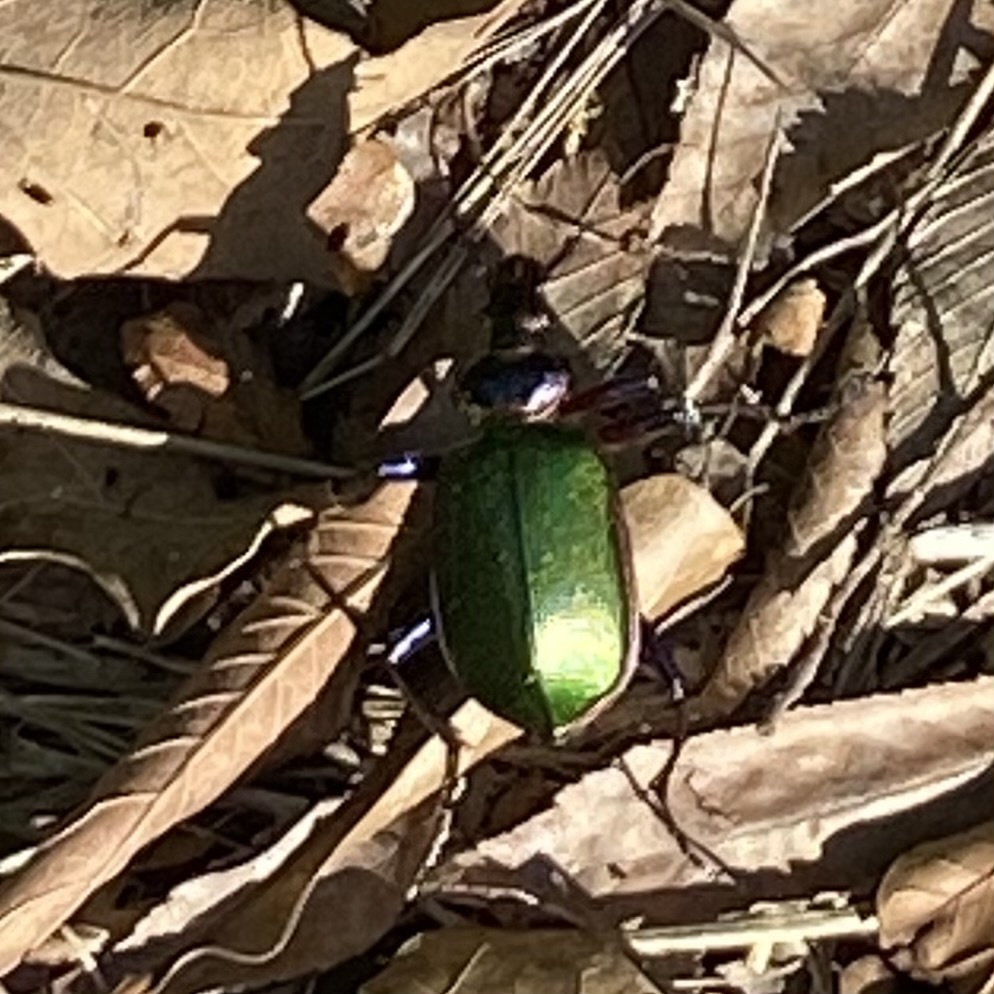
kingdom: Animalia
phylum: Arthropoda
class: Insecta
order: Coleoptera
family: Carabidae
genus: Calosoma
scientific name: Calosoma scrutator
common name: Fiery searcher beetle
